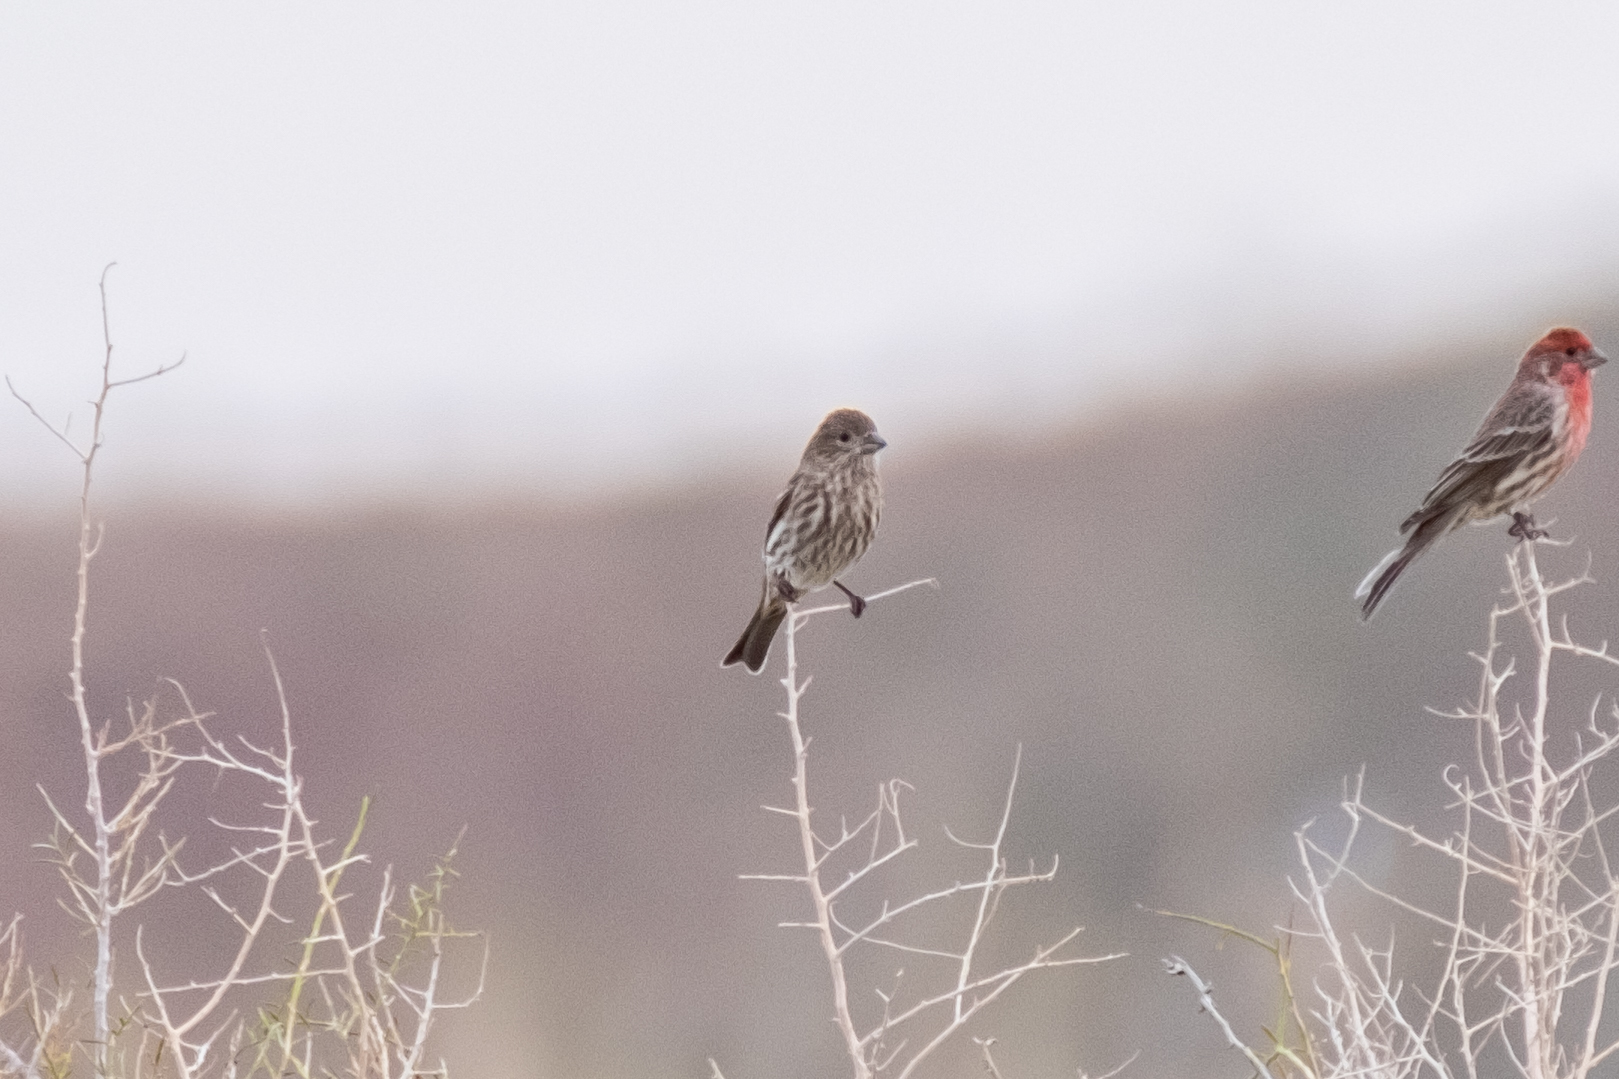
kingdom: Animalia
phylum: Chordata
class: Aves
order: Passeriformes
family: Fringillidae
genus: Haemorhous
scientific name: Haemorhous mexicanus
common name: House finch
